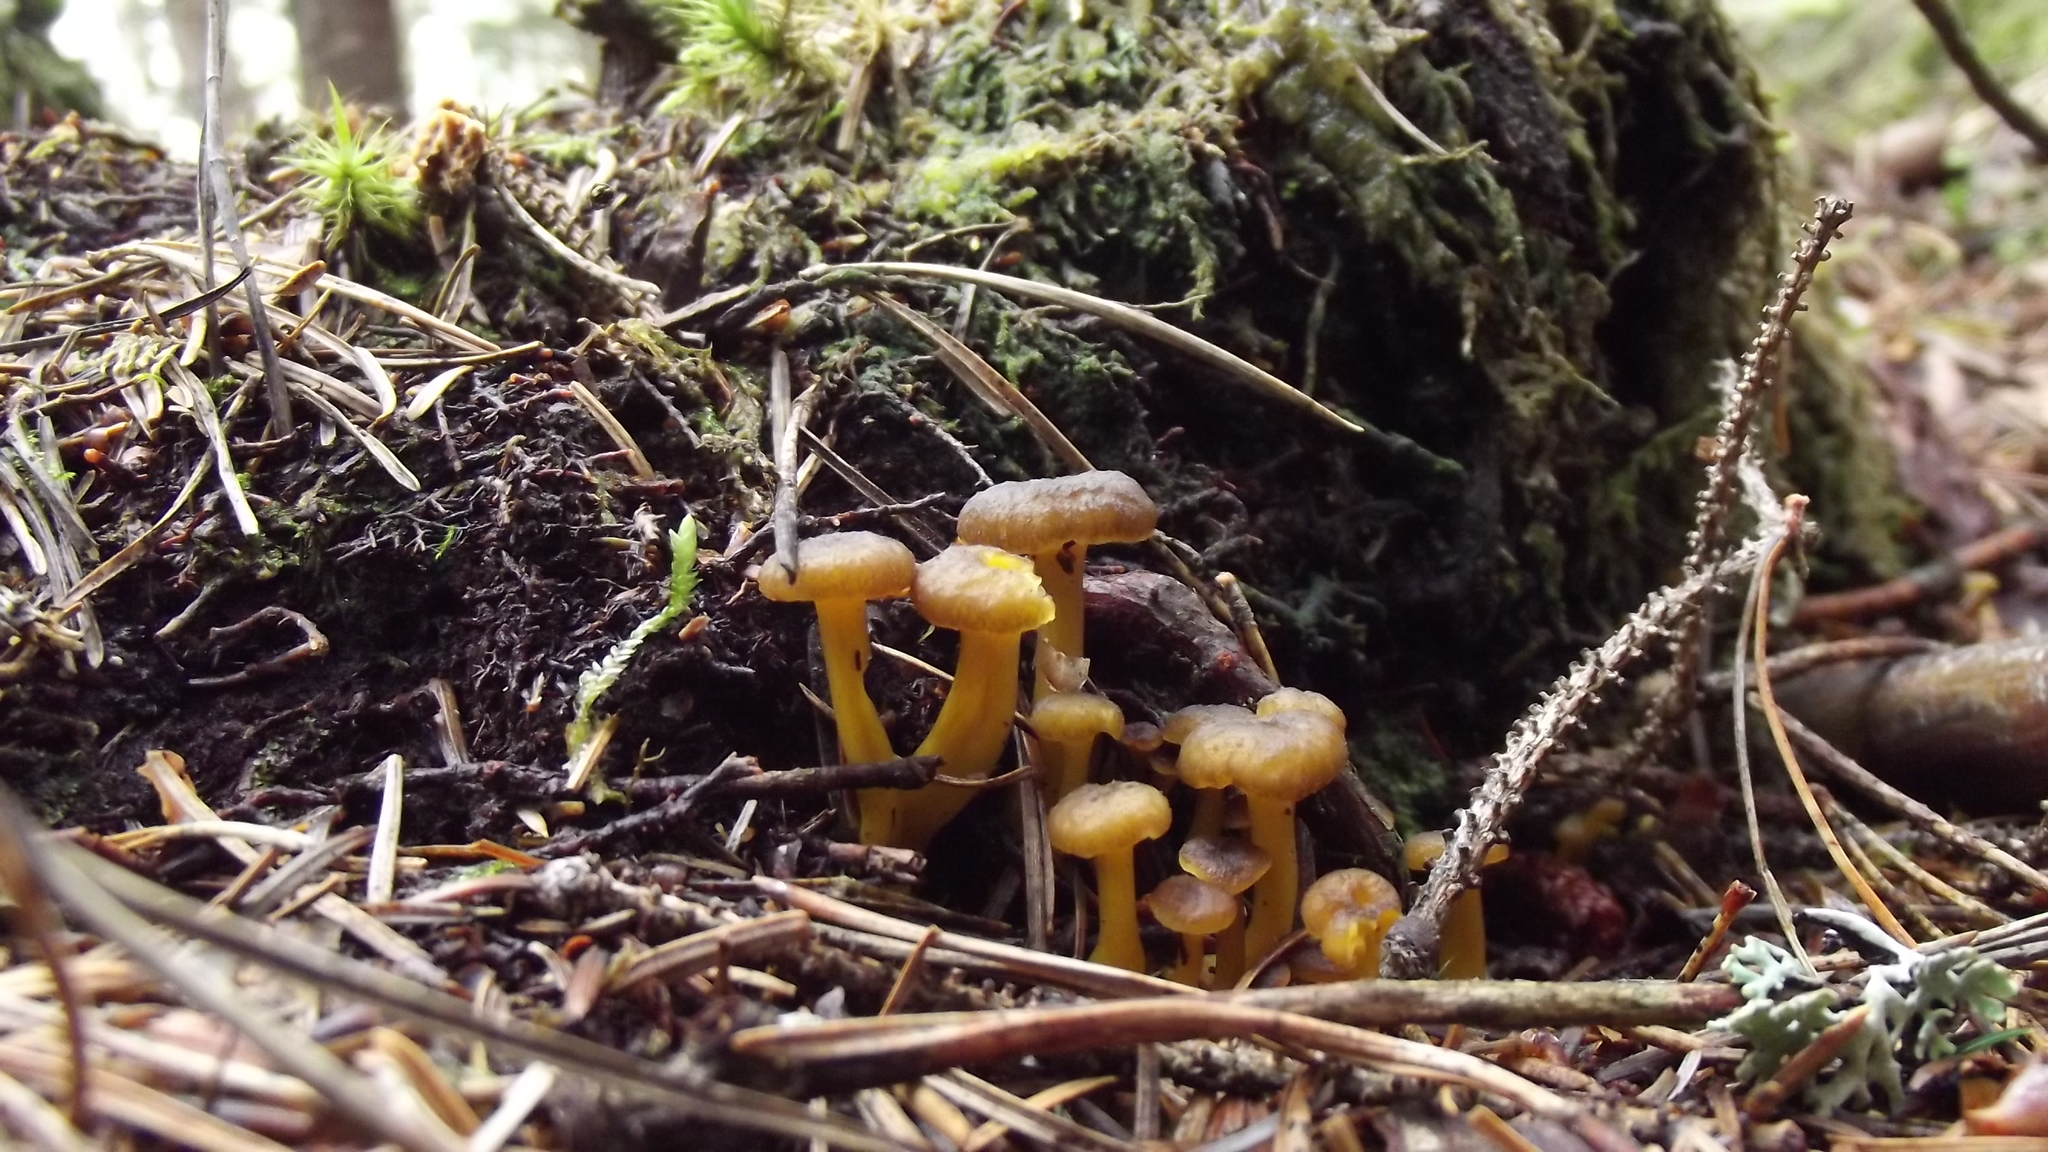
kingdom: Fungi
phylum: Ascomycota
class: Leotiomycetes
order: Leotiales
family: Leotiaceae
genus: Leotia
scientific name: Leotia lubrica
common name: Jellybaby
